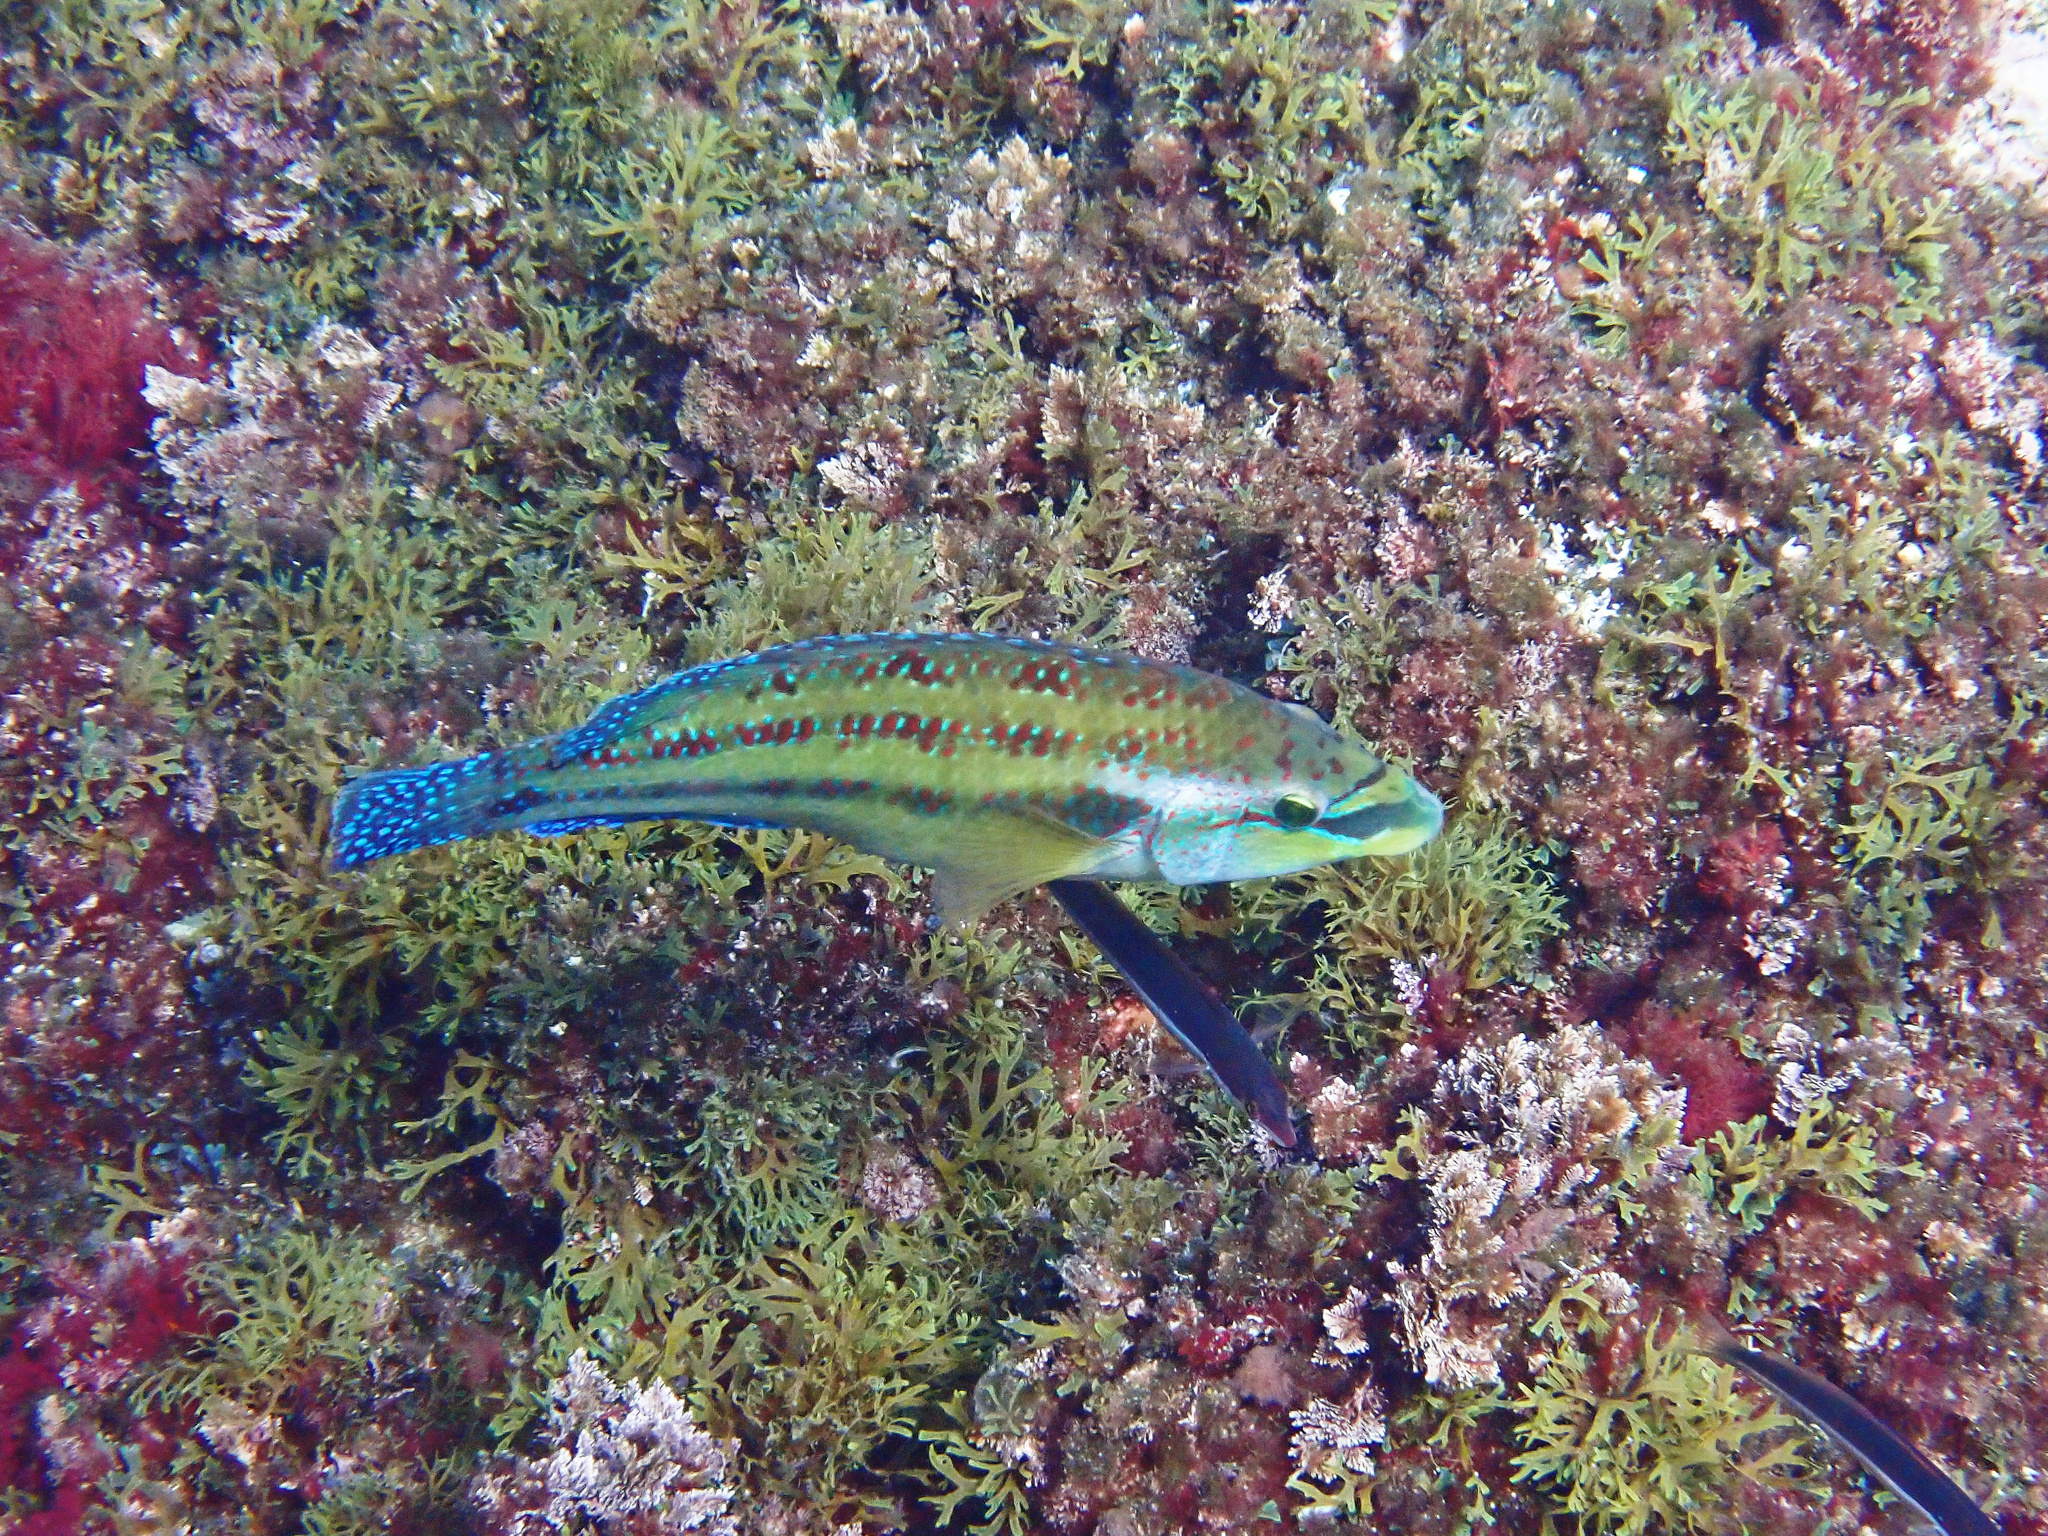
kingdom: Animalia
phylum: Chordata
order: Perciformes
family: Labridae
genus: Symphodus
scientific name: Symphodus tinca
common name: Peacock wrasse
